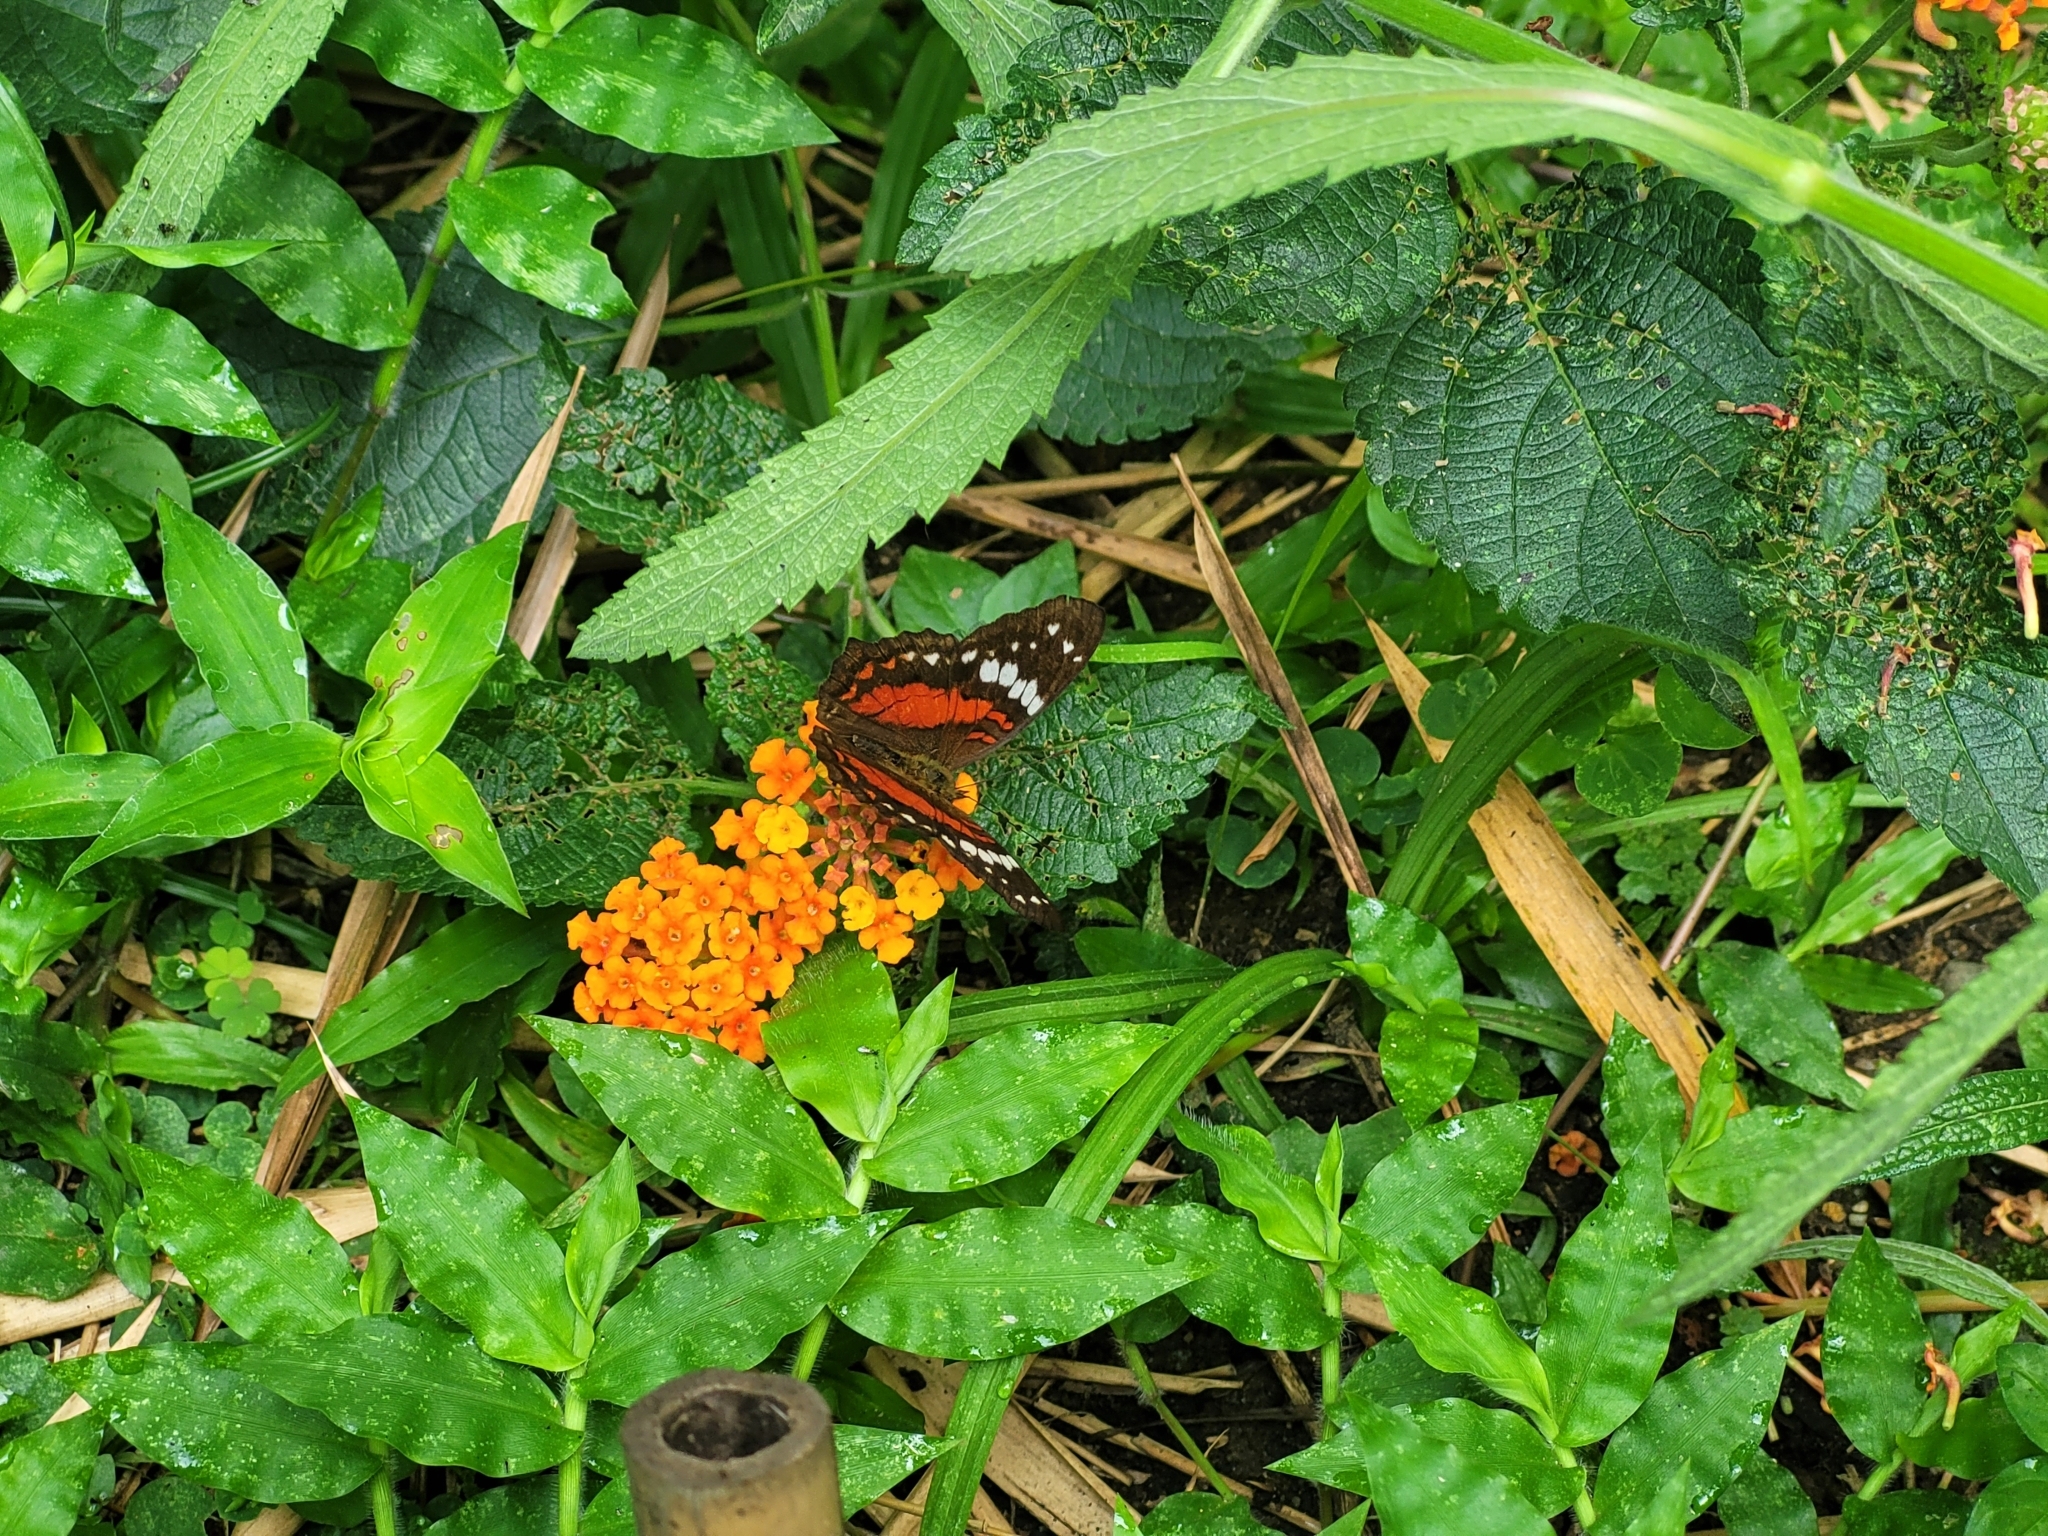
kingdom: Animalia
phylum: Arthropoda
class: Insecta
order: Lepidoptera
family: Nymphalidae
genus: Anartia
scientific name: Anartia amathea
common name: Red peacock
